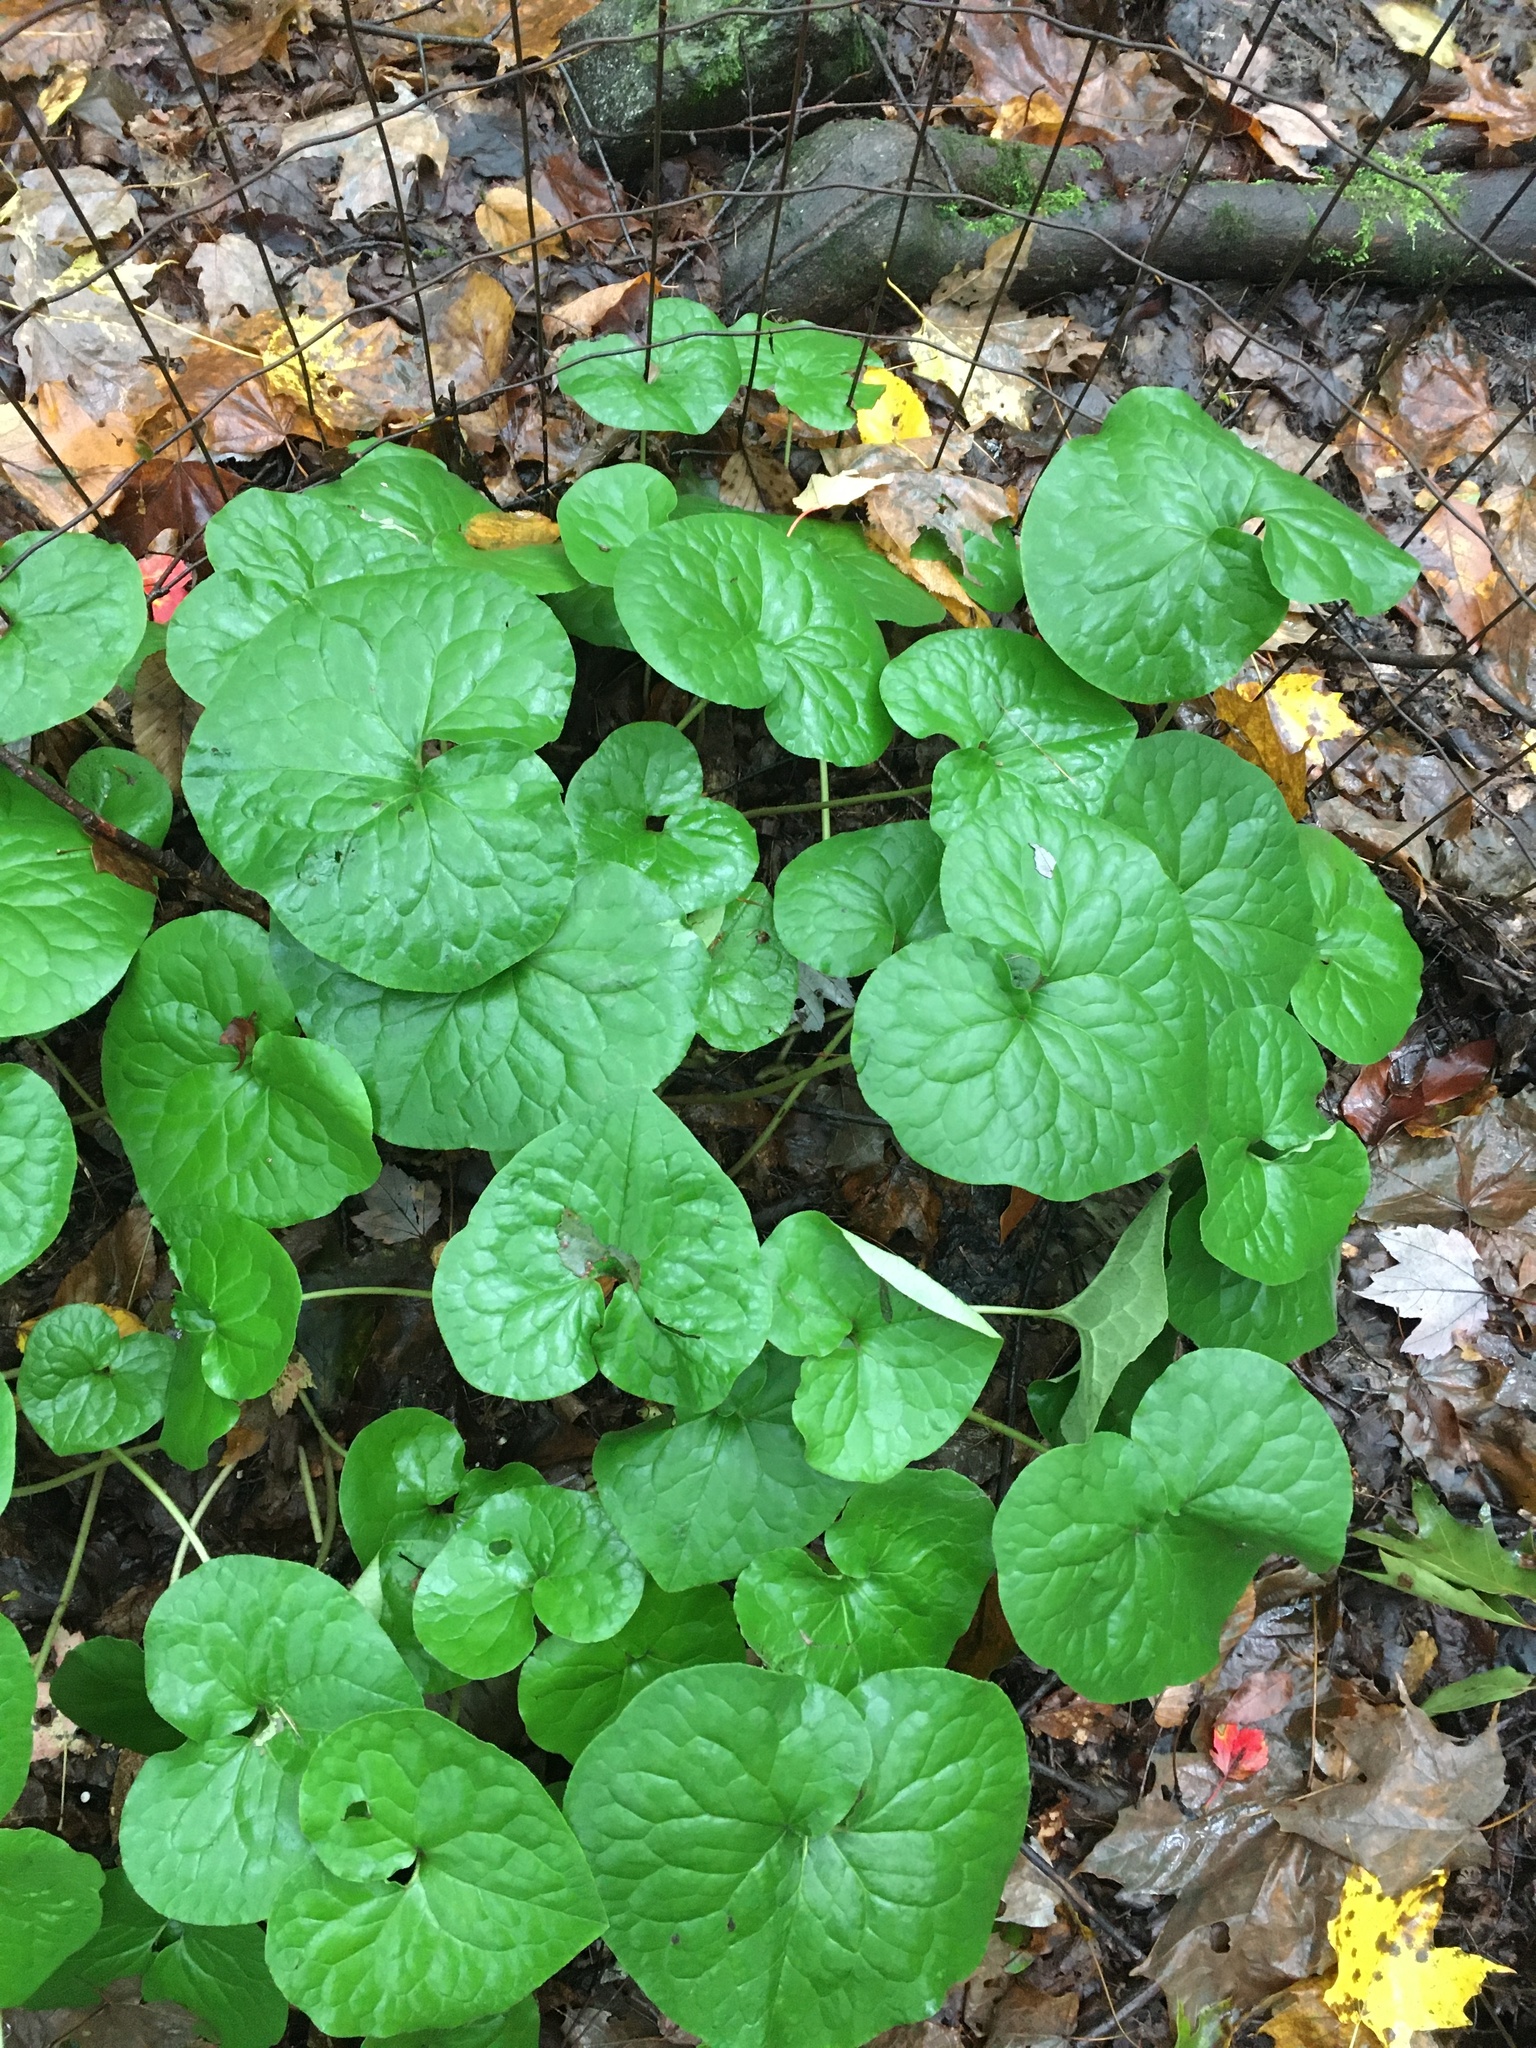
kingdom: Plantae
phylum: Tracheophyta
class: Magnoliopsida
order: Piperales
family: Aristolochiaceae
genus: Asarum
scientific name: Asarum canadense
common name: Wild ginger
